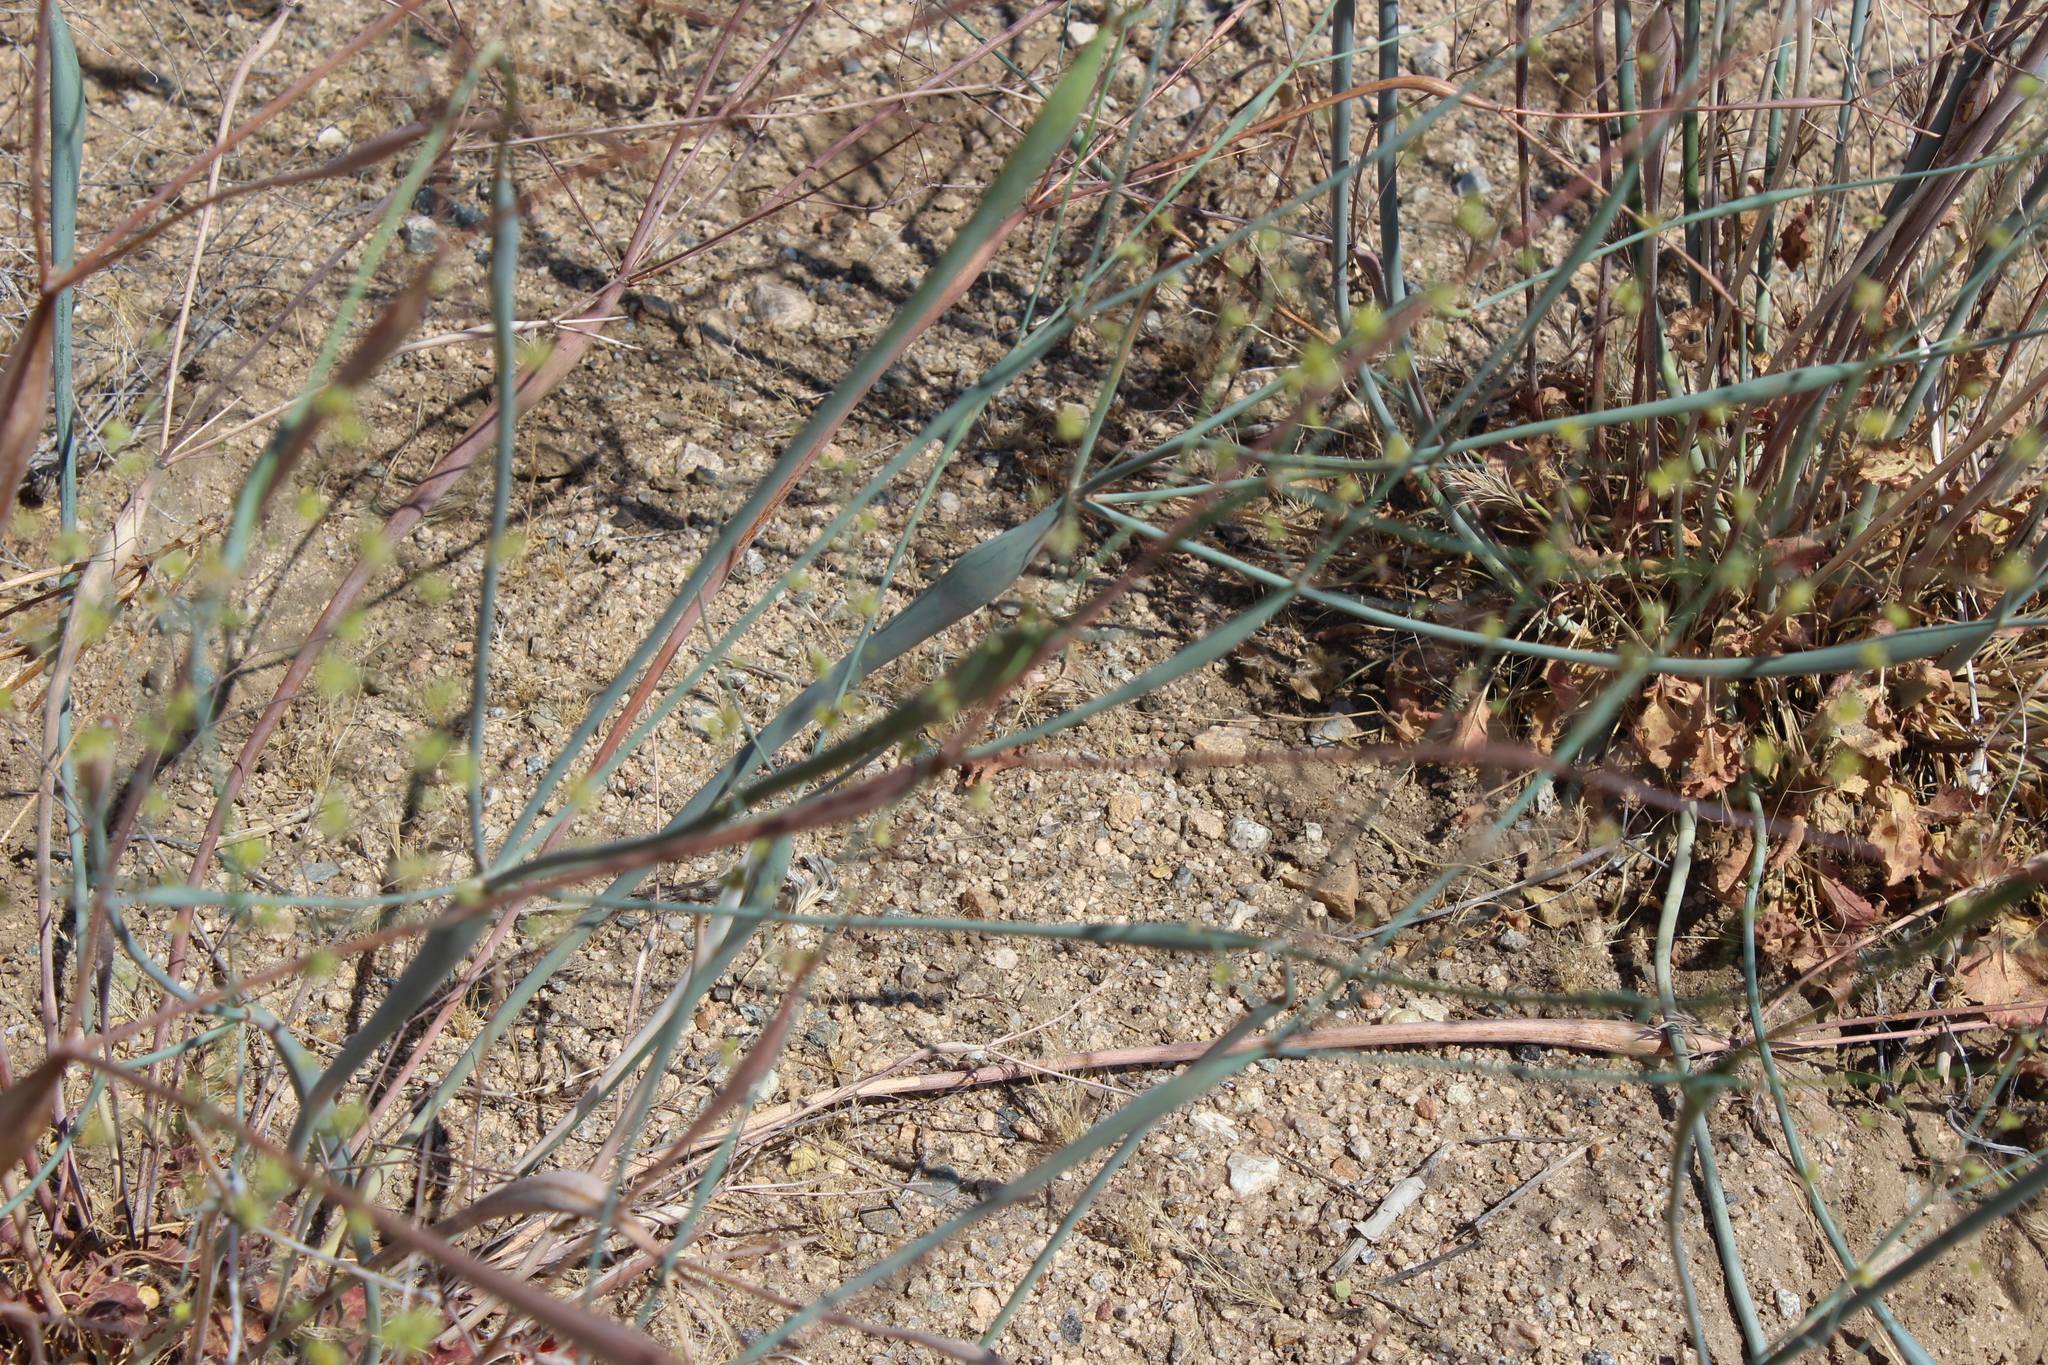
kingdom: Plantae
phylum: Tracheophyta
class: Magnoliopsida
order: Caryophyllales
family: Polygonaceae
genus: Eriogonum
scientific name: Eriogonum inflatum
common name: Desert trumpet
